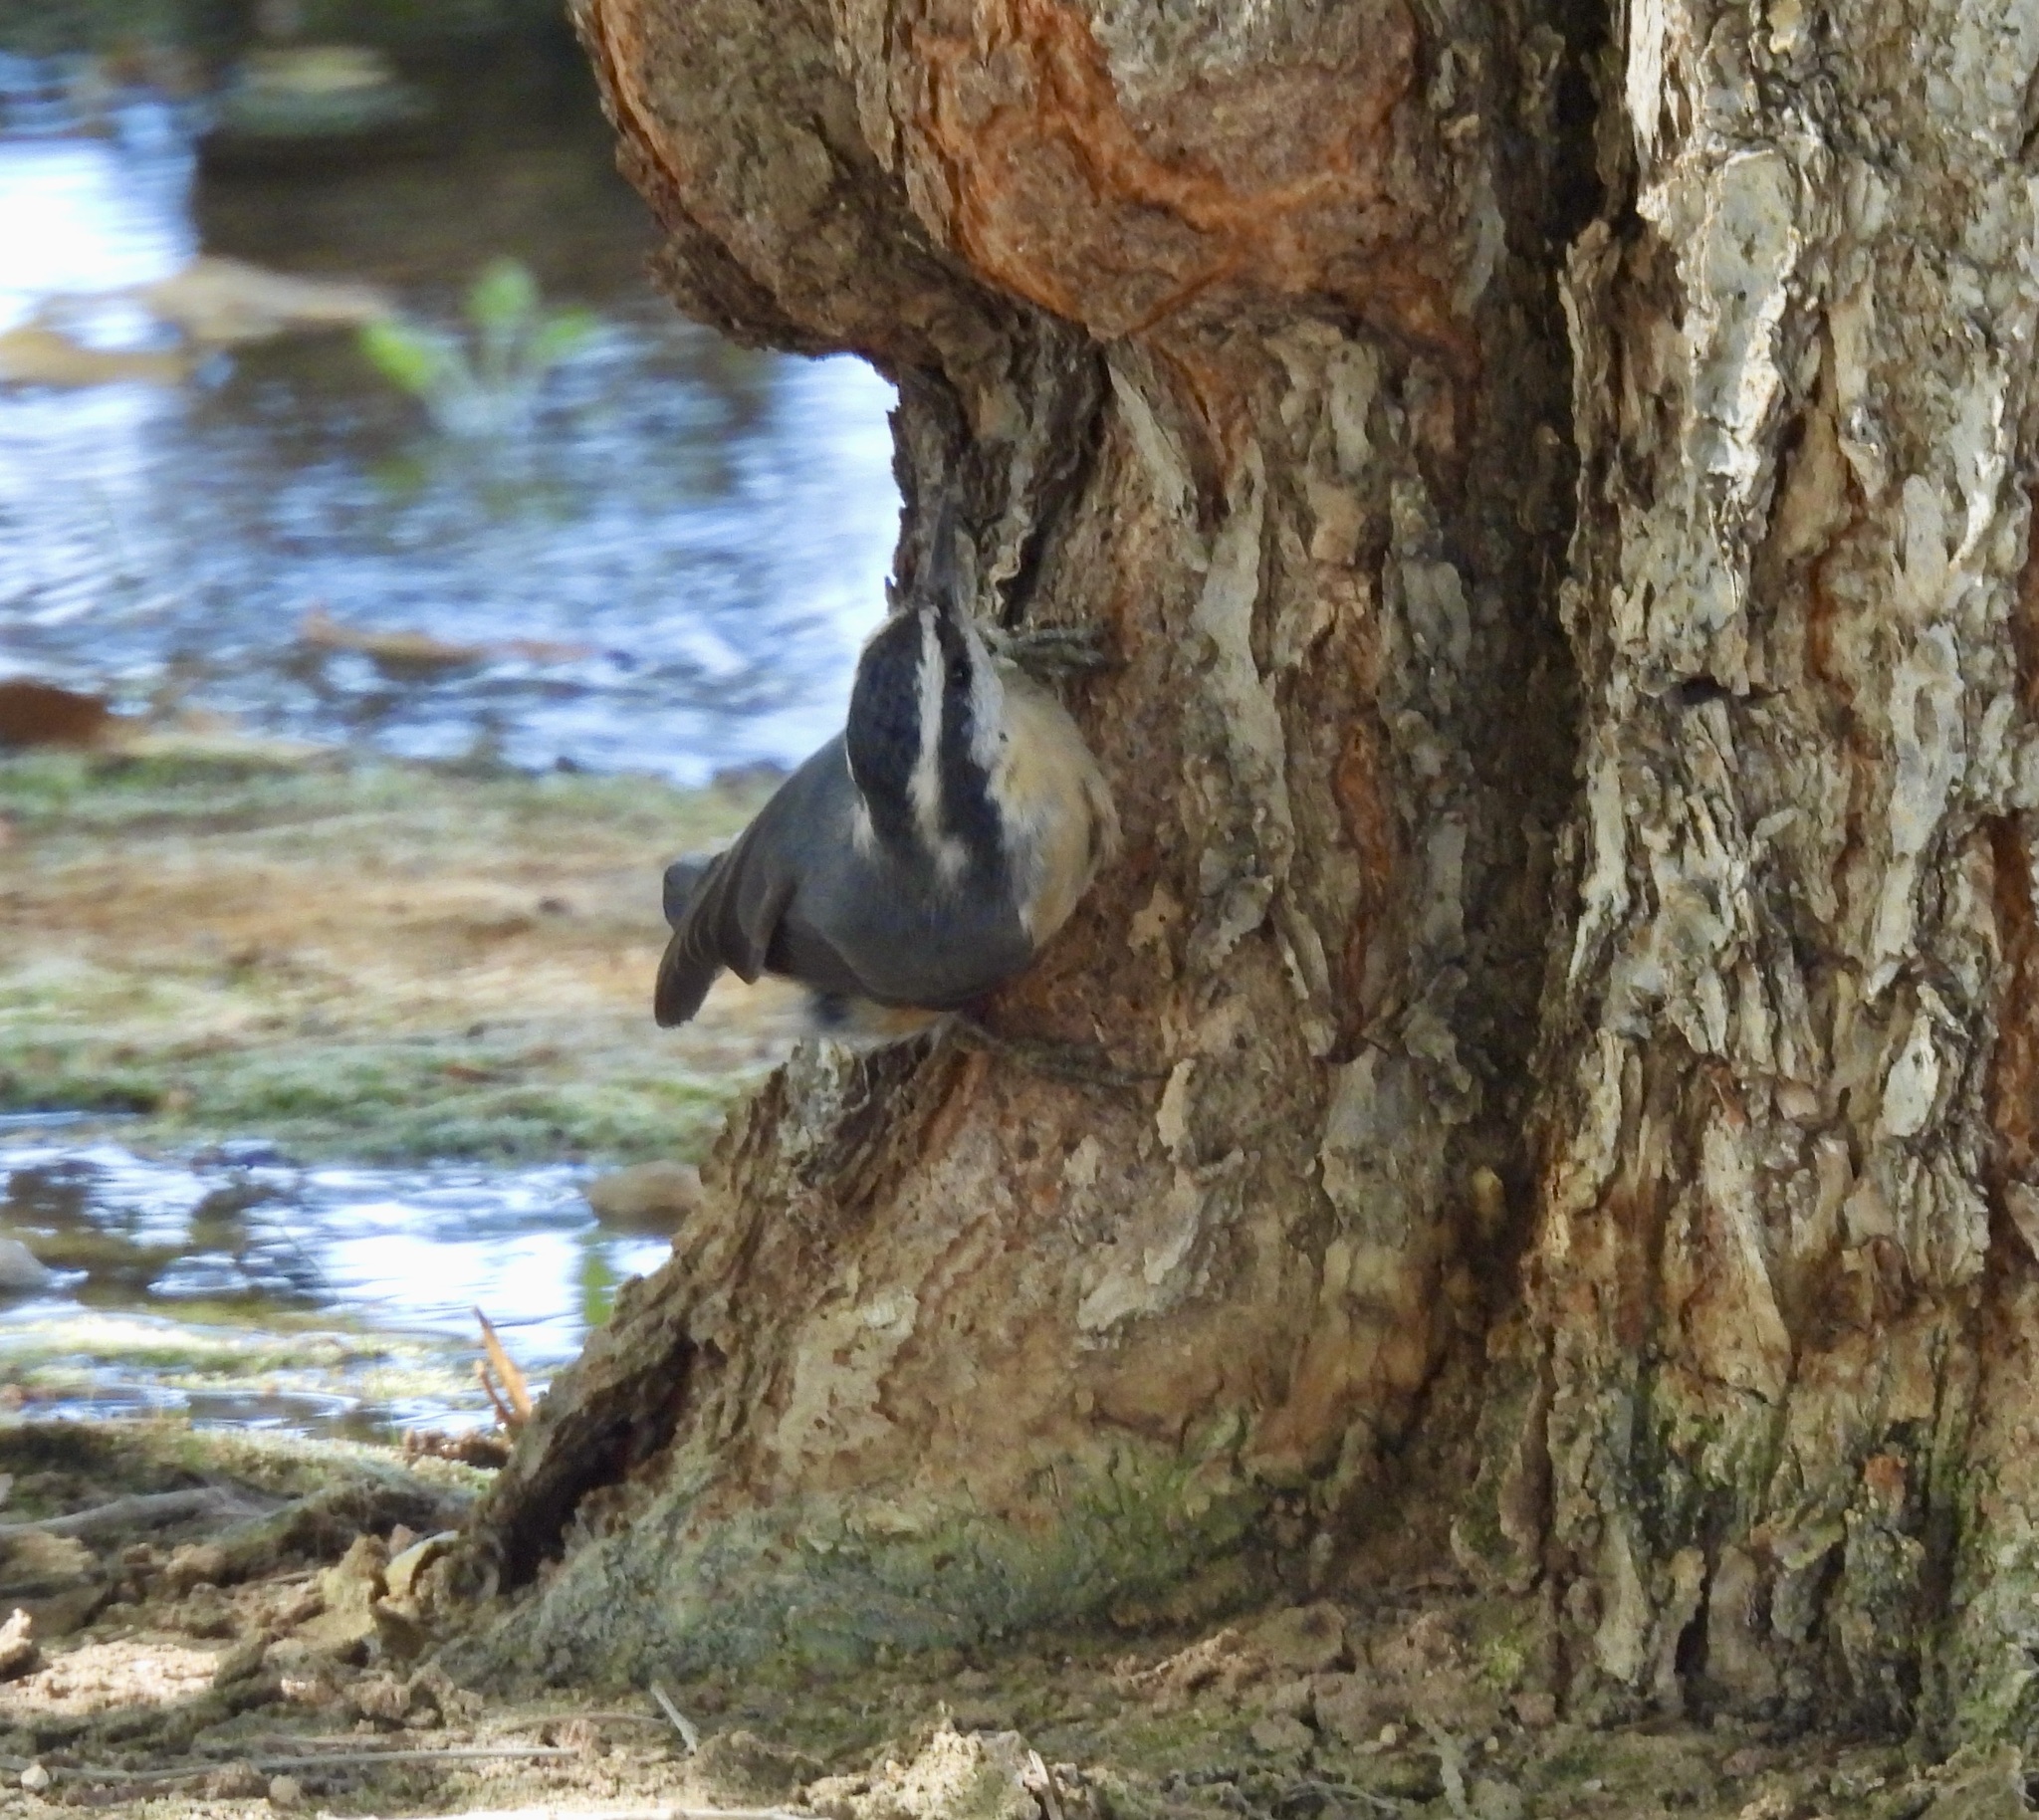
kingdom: Animalia
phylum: Chordata
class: Aves
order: Passeriformes
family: Sittidae
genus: Sitta
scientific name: Sitta canadensis
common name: Red-breasted nuthatch
